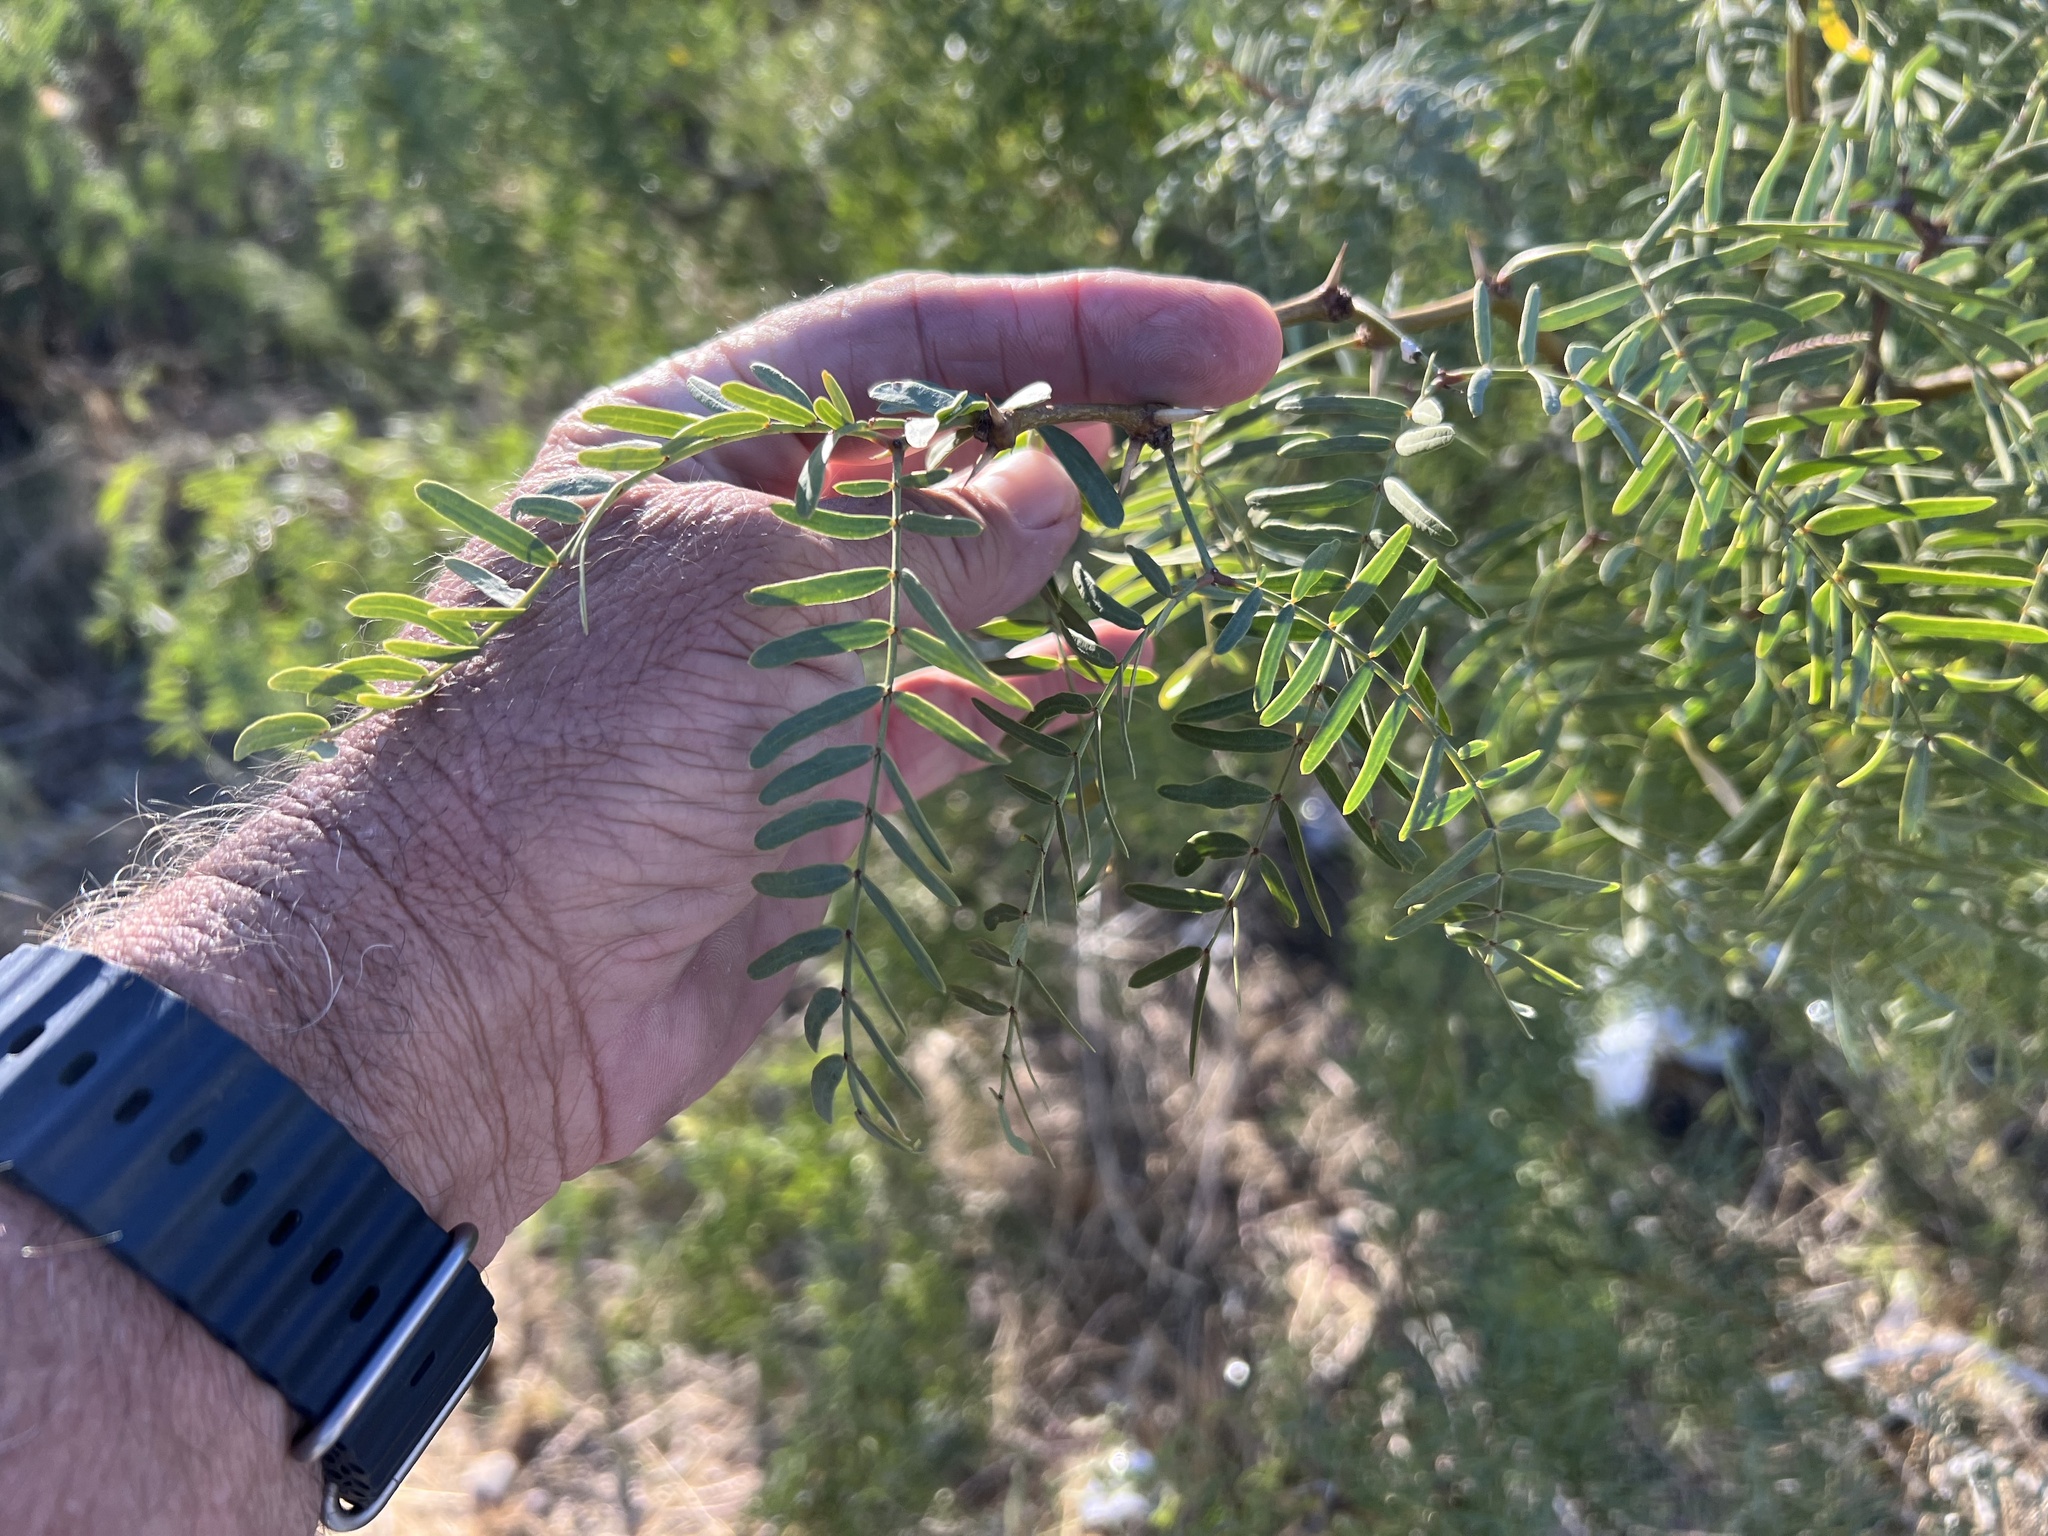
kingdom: Plantae
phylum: Tracheophyta
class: Magnoliopsida
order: Fabales
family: Fabaceae
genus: Prosopis
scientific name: Prosopis glandulosa
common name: Honey mesquite
